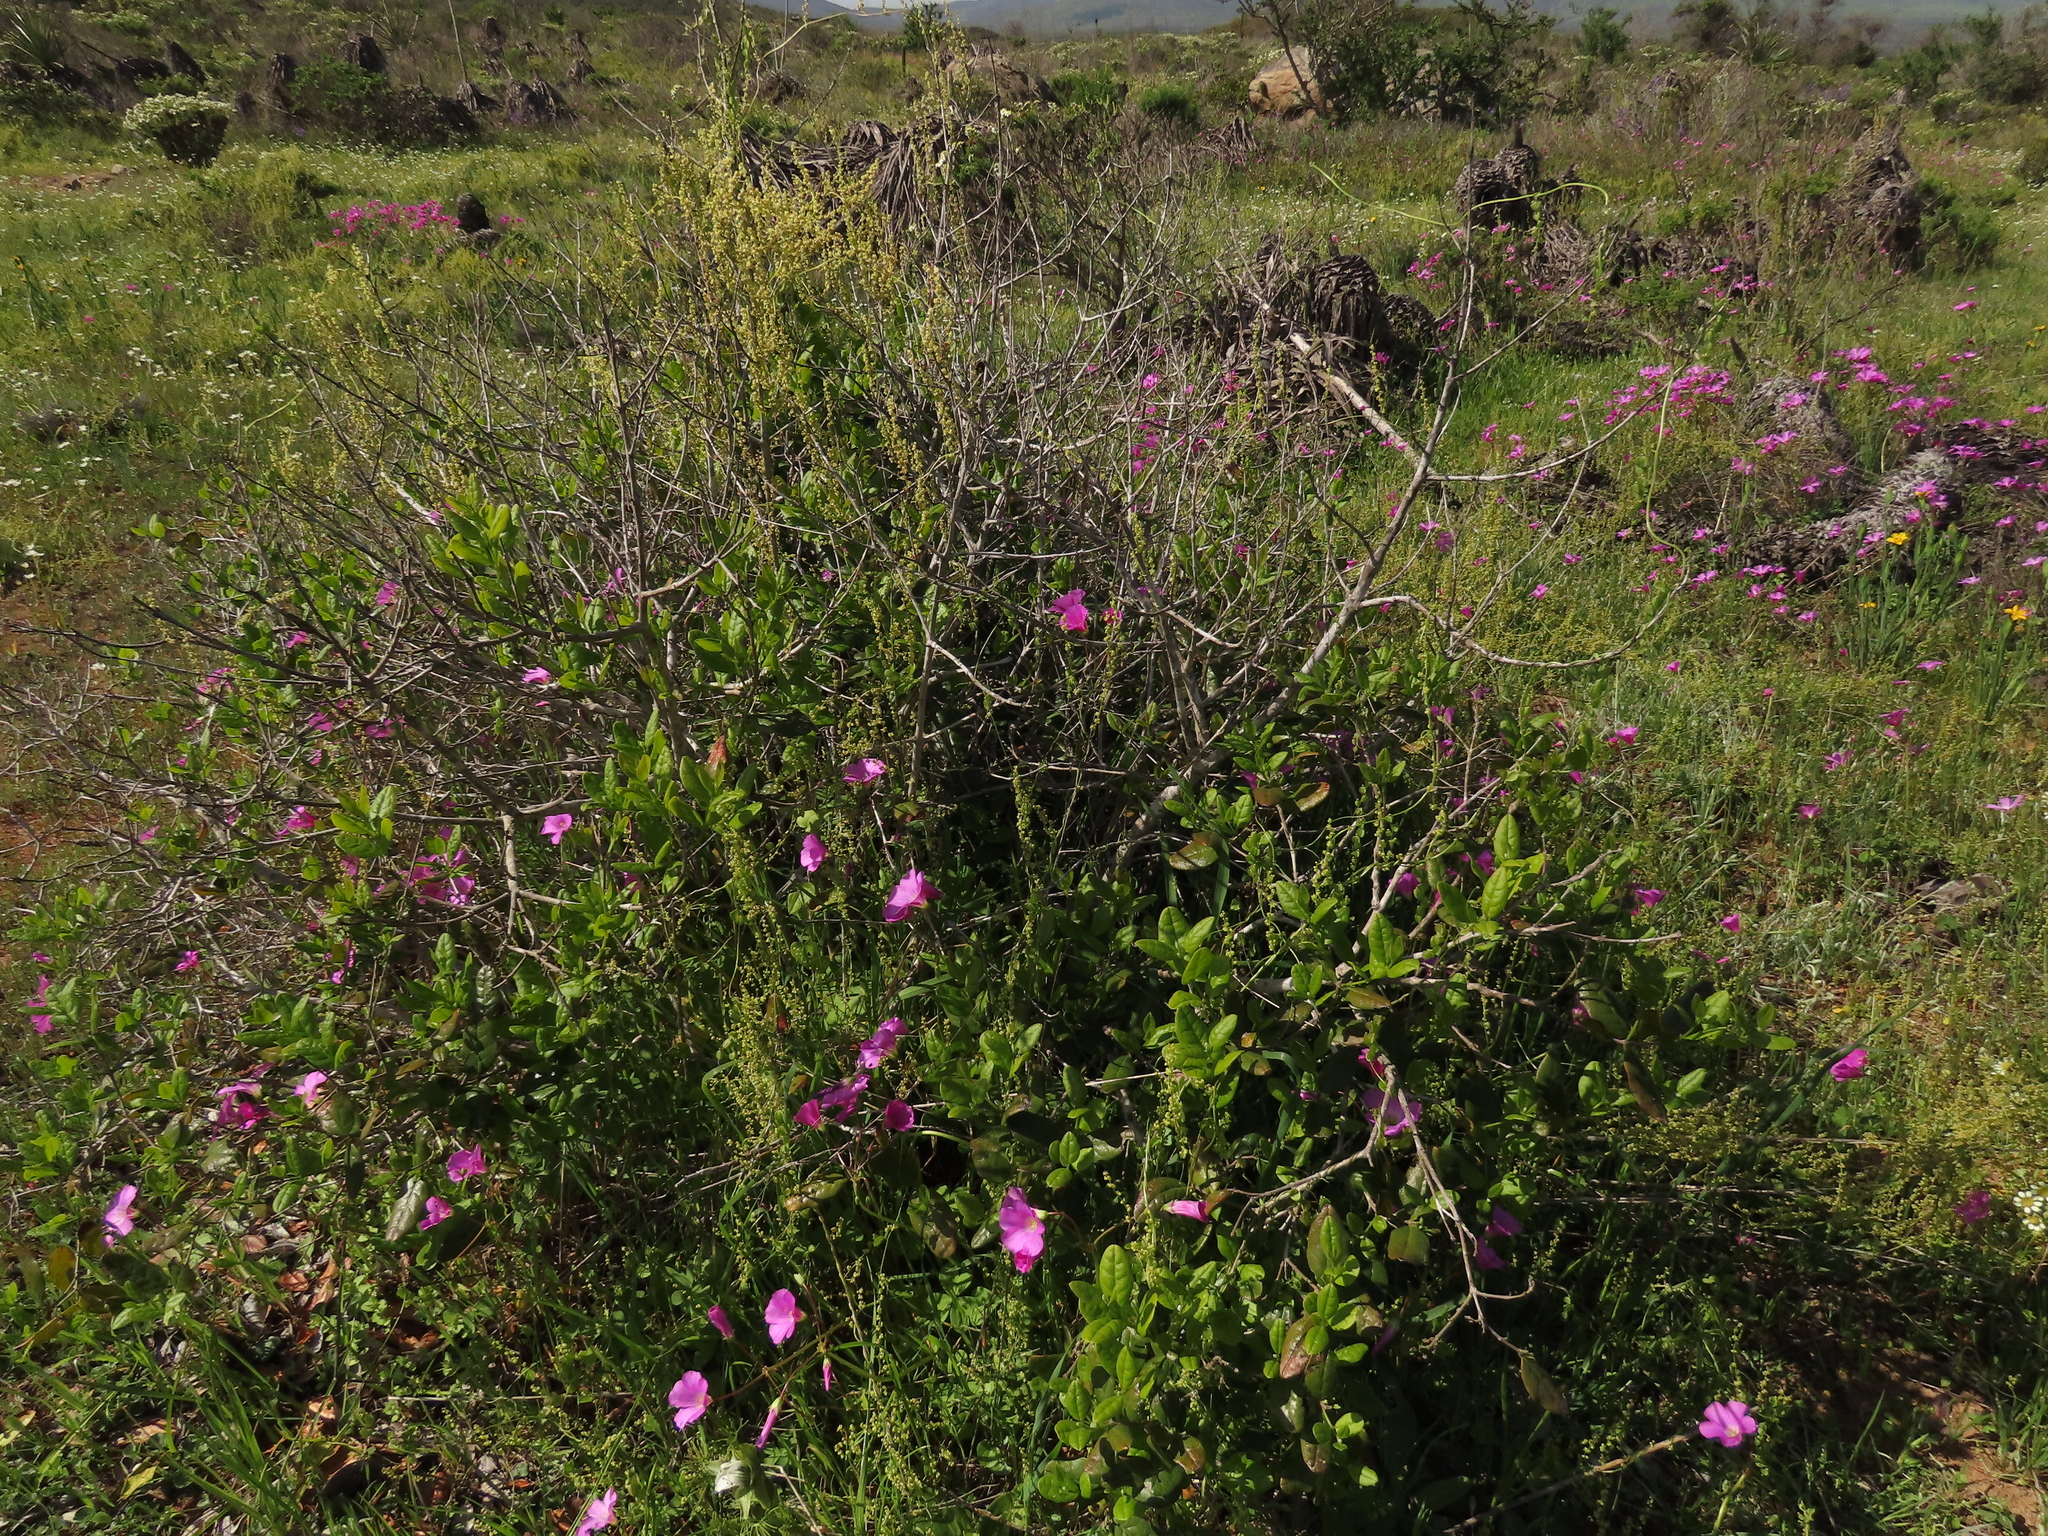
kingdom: Plantae
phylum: Tracheophyta
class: Magnoliopsida
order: Laurales
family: Monimiaceae
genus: Peumus
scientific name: Peumus boldus
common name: Boldo
